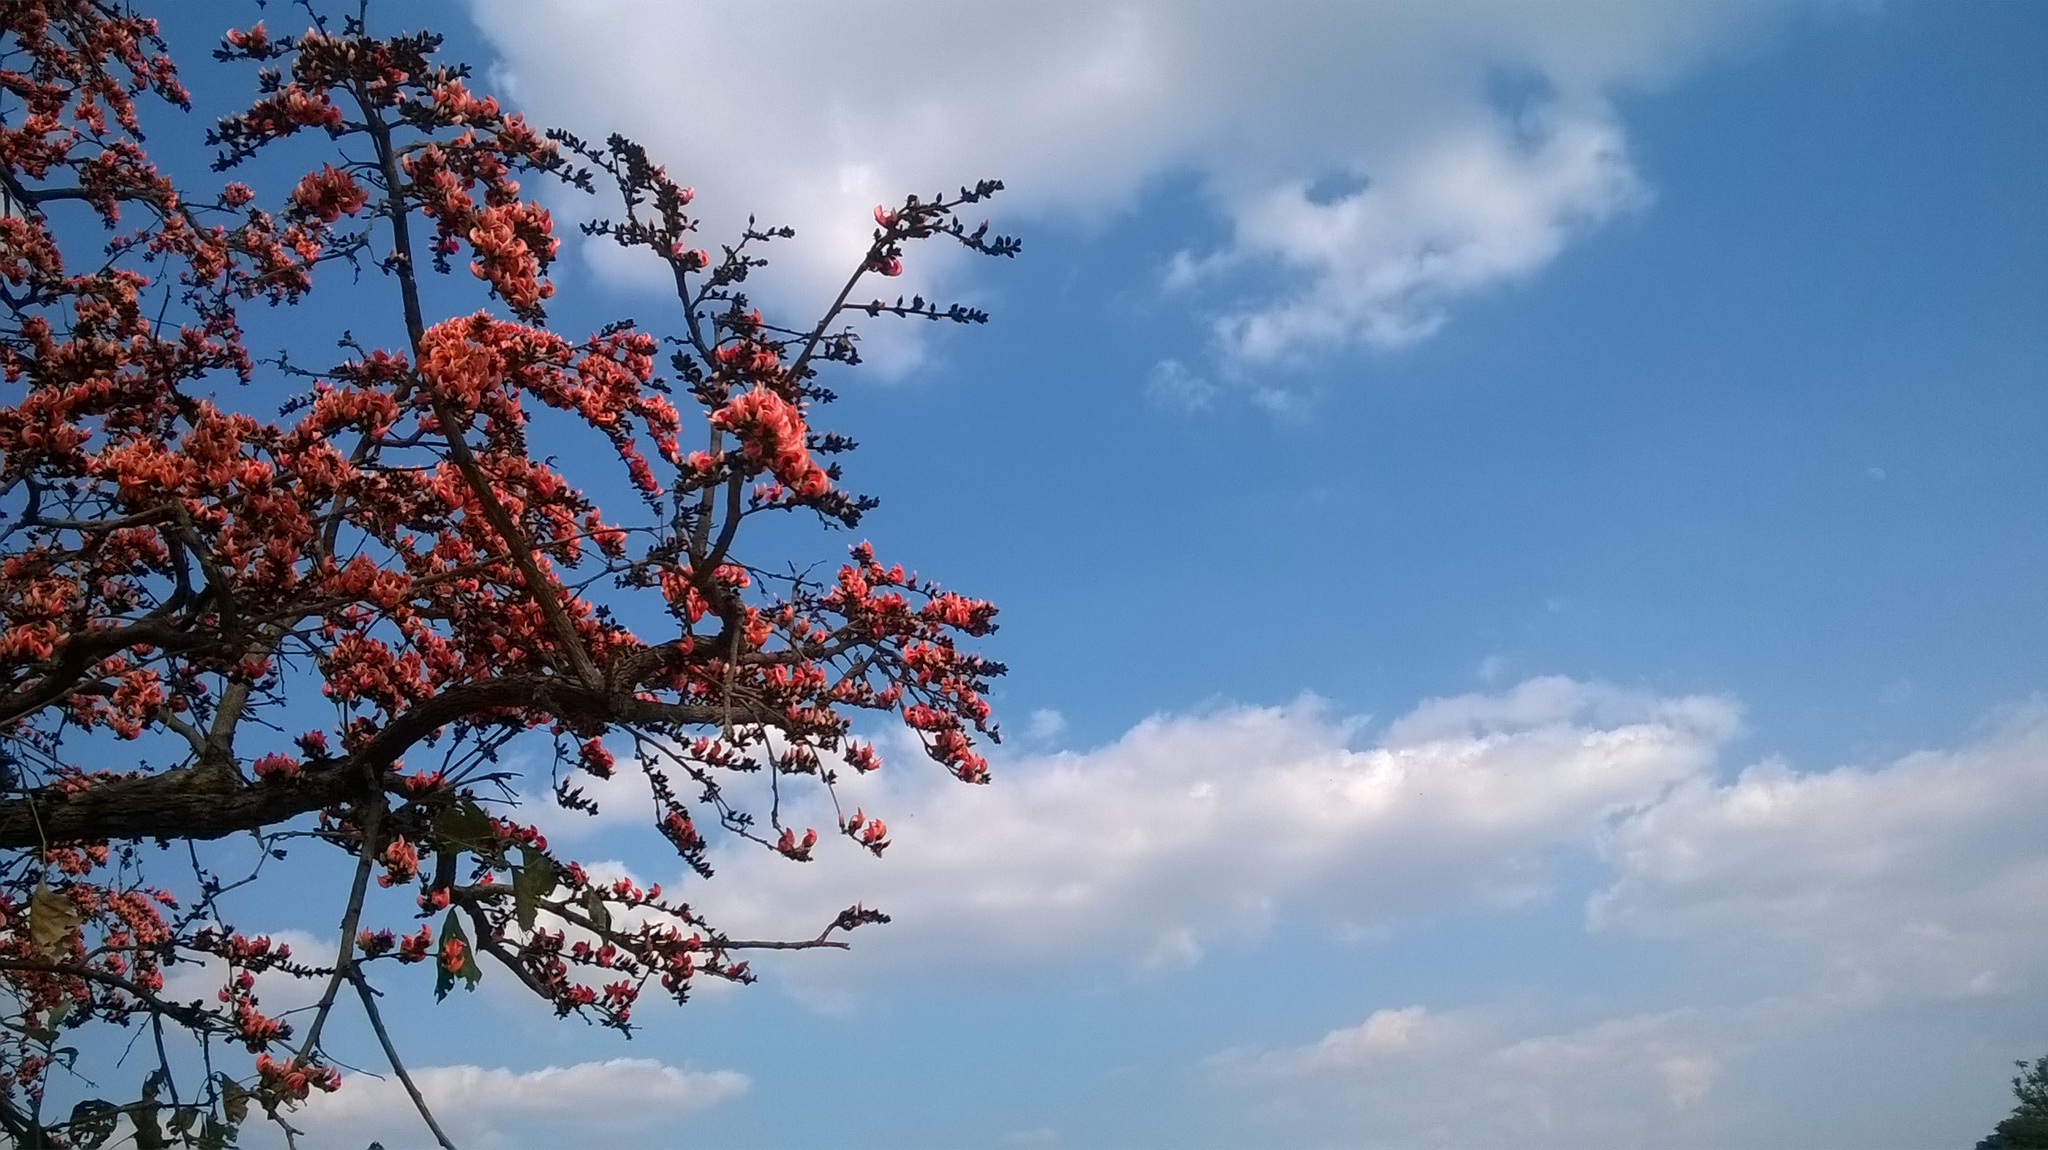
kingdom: Plantae
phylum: Tracheophyta
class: Magnoliopsida
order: Fabales
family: Fabaceae
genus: Butea
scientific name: Butea monosperma
